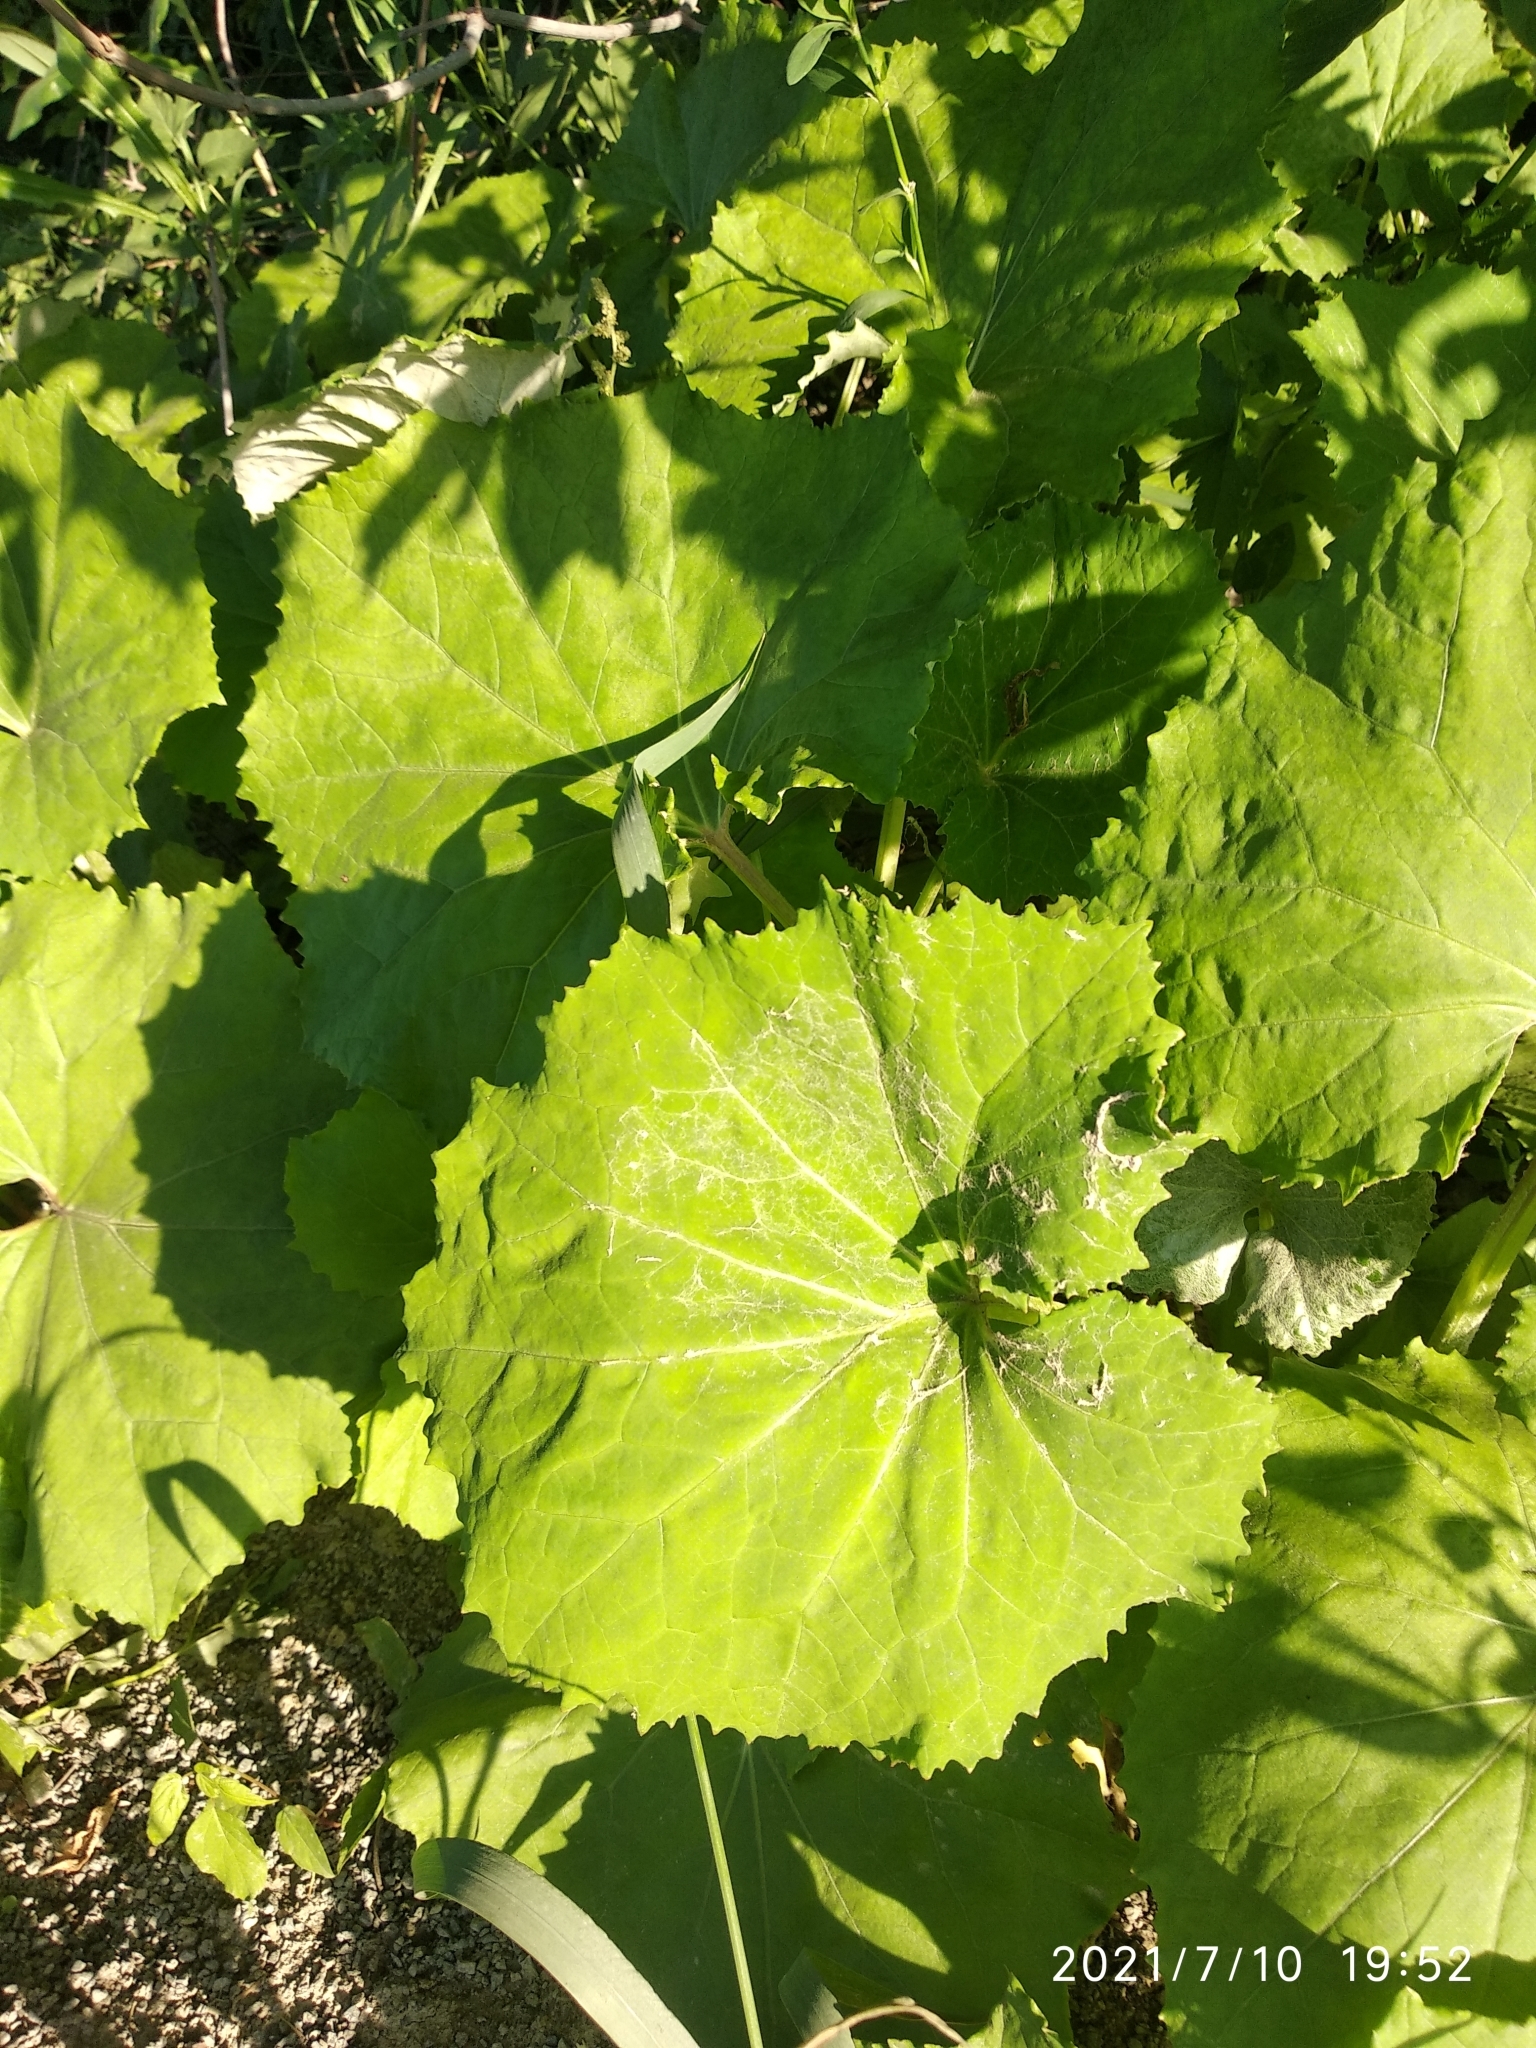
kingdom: Plantae
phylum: Tracheophyta
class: Magnoliopsida
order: Asterales
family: Asteraceae
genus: Tussilago
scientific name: Tussilago farfara
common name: Coltsfoot
